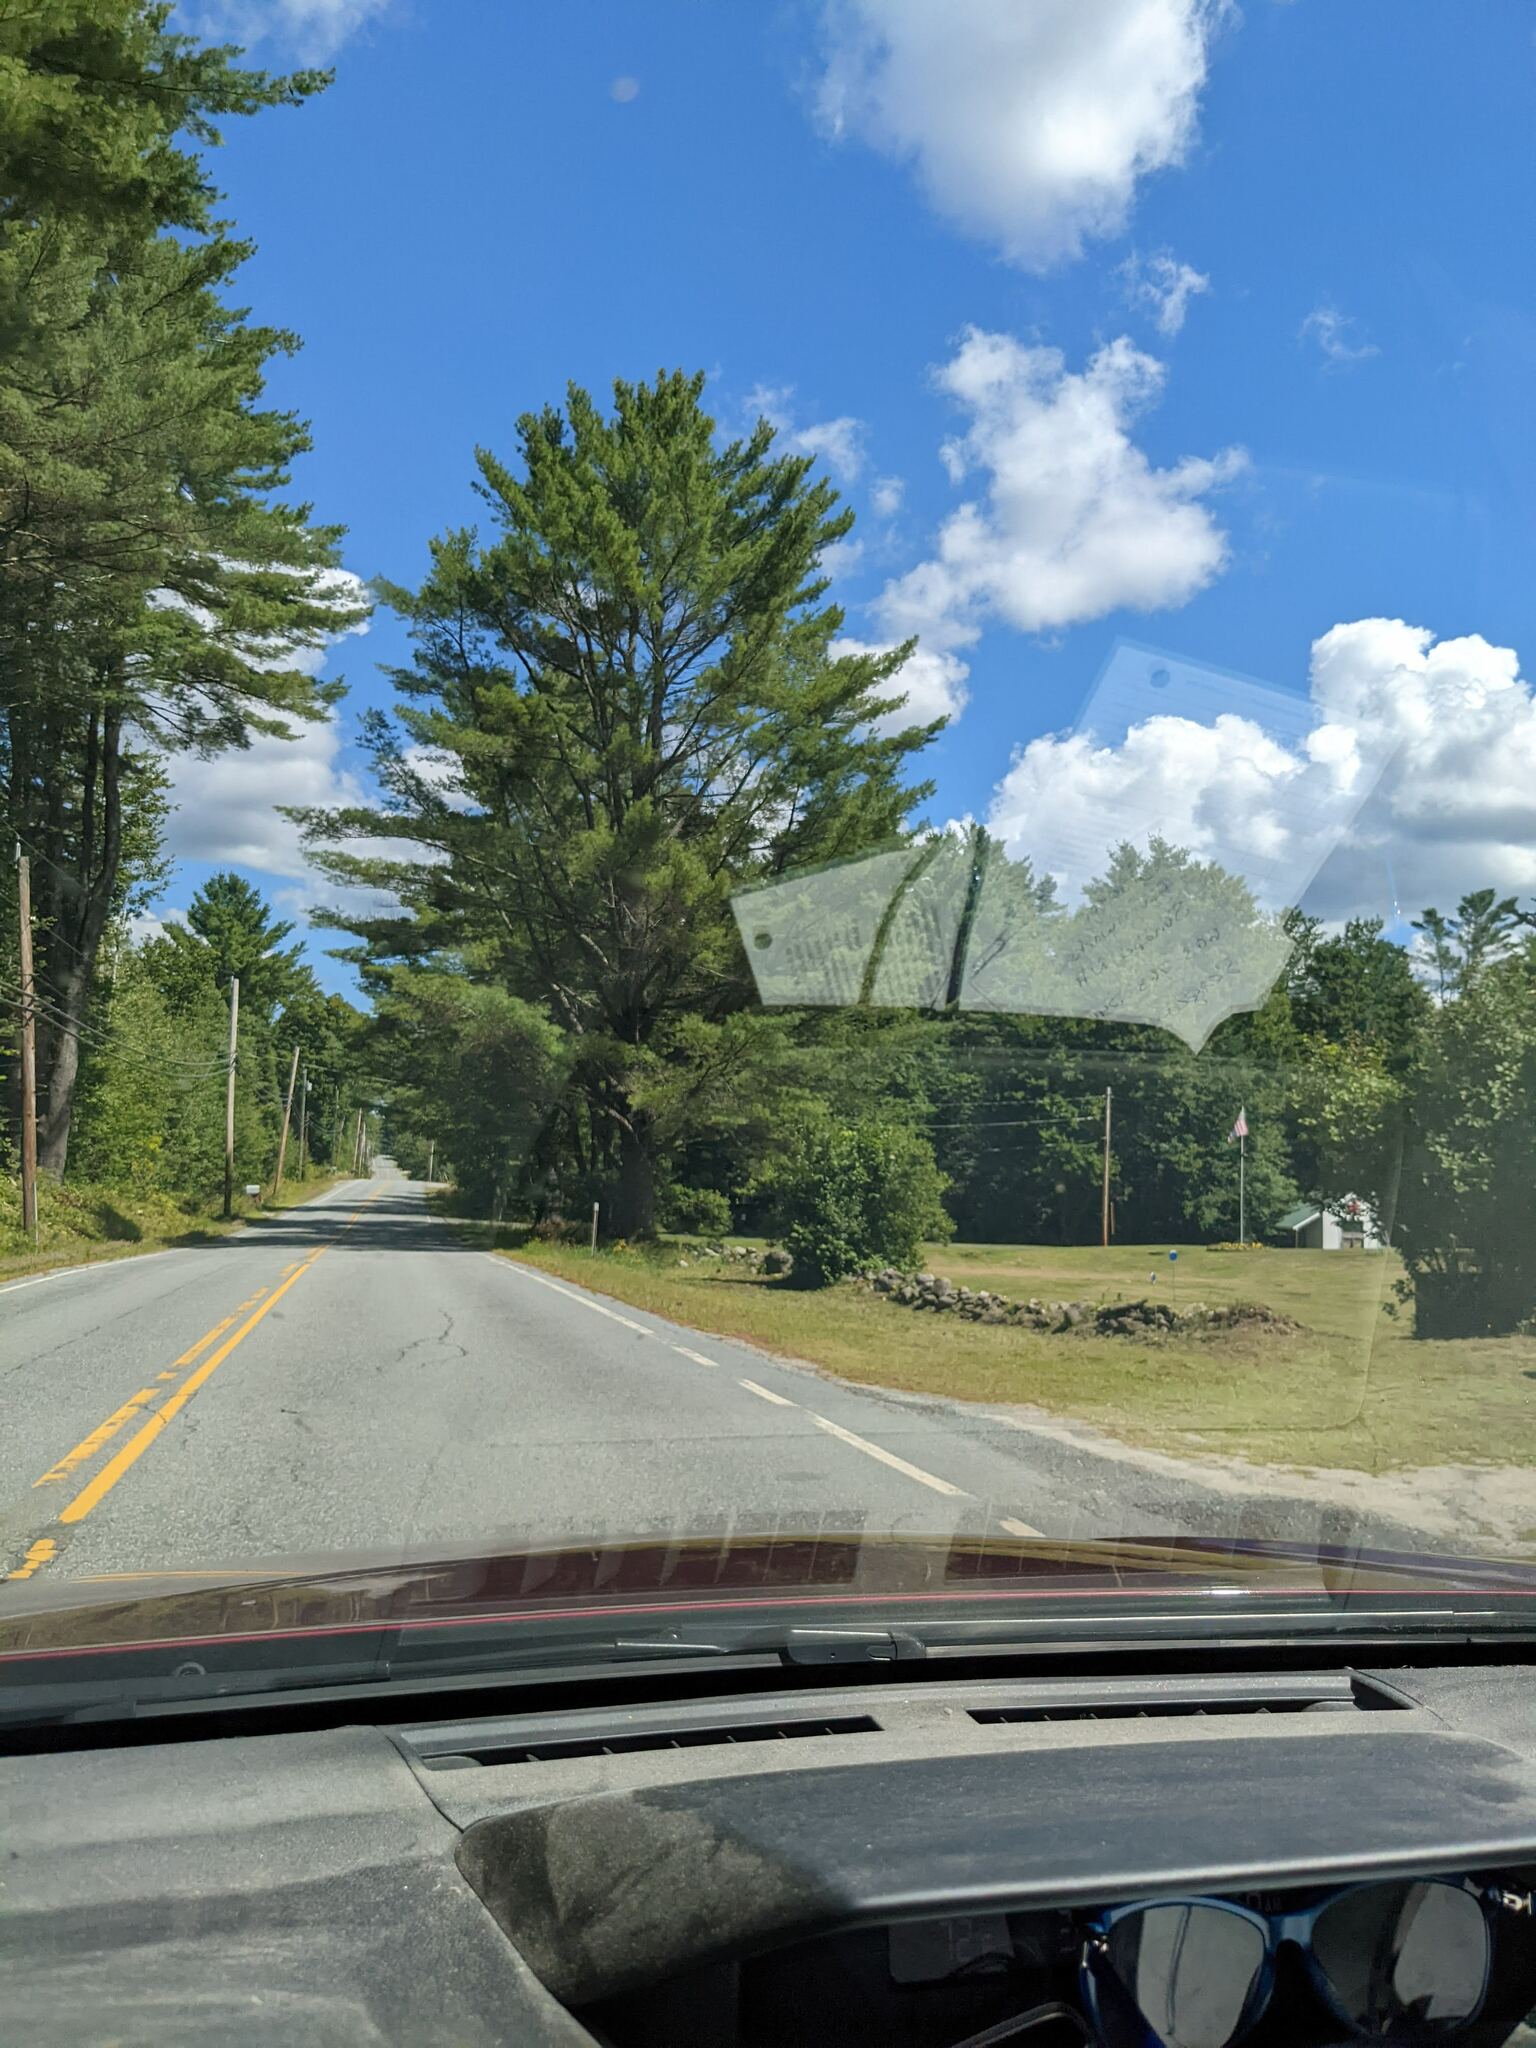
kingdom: Plantae
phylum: Tracheophyta
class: Pinopsida
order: Pinales
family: Pinaceae
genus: Pinus
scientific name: Pinus strobus
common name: Weymouth pine
